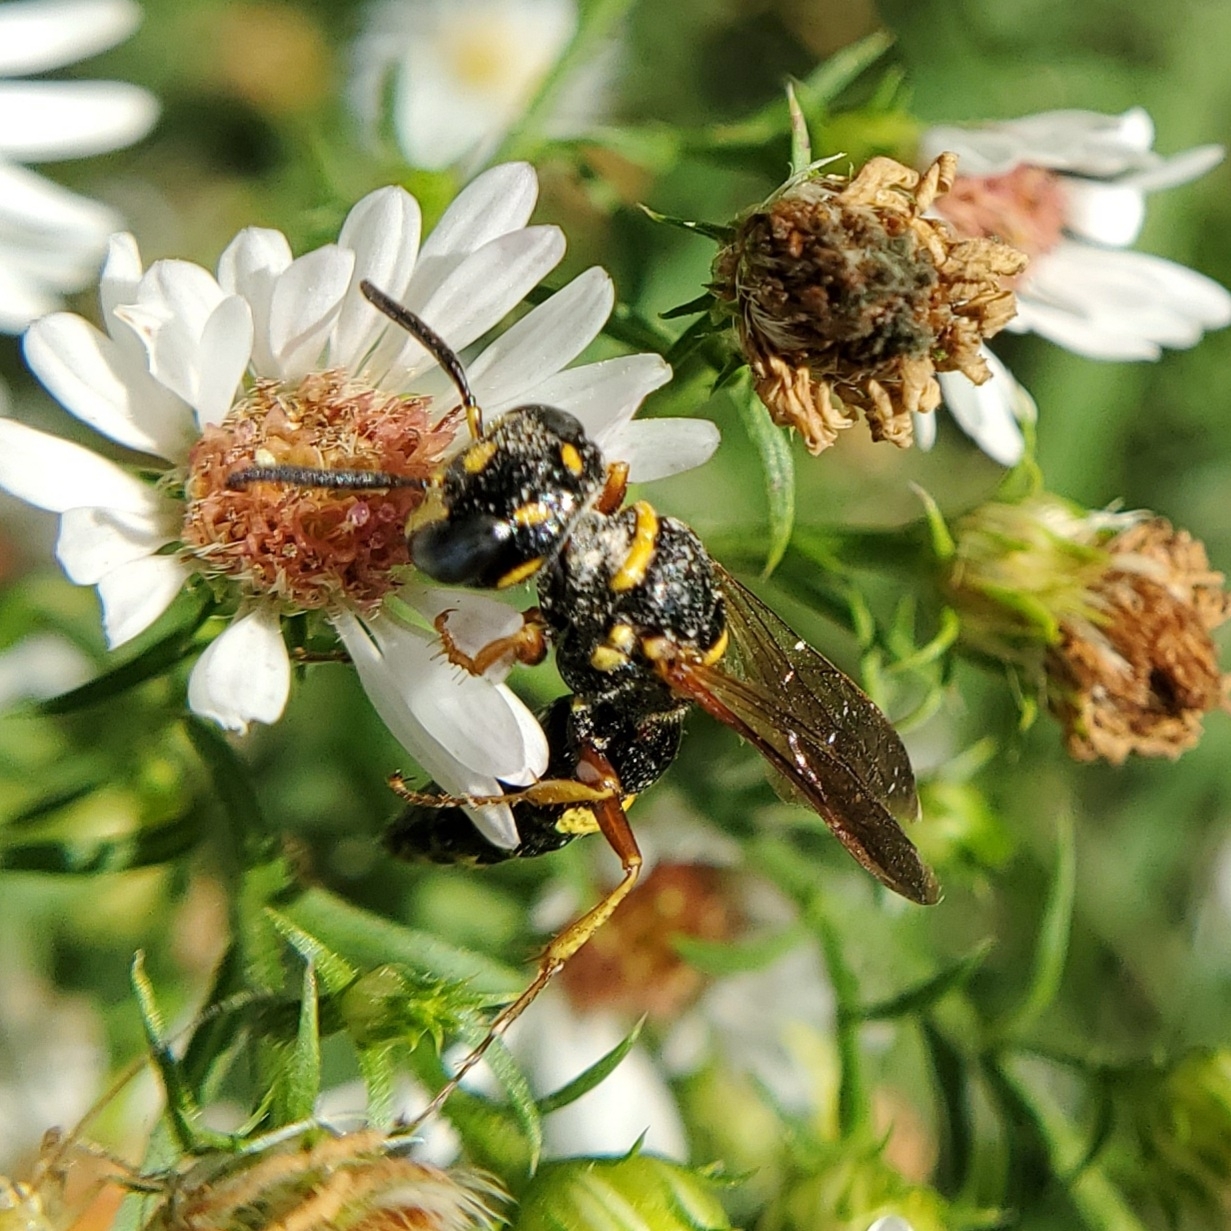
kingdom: Animalia
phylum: Arthropoda
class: Insecta
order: Hymenoptera
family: Crabronidae
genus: Philanthus
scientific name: Philanthus gibbosus
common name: Humped beewolf
